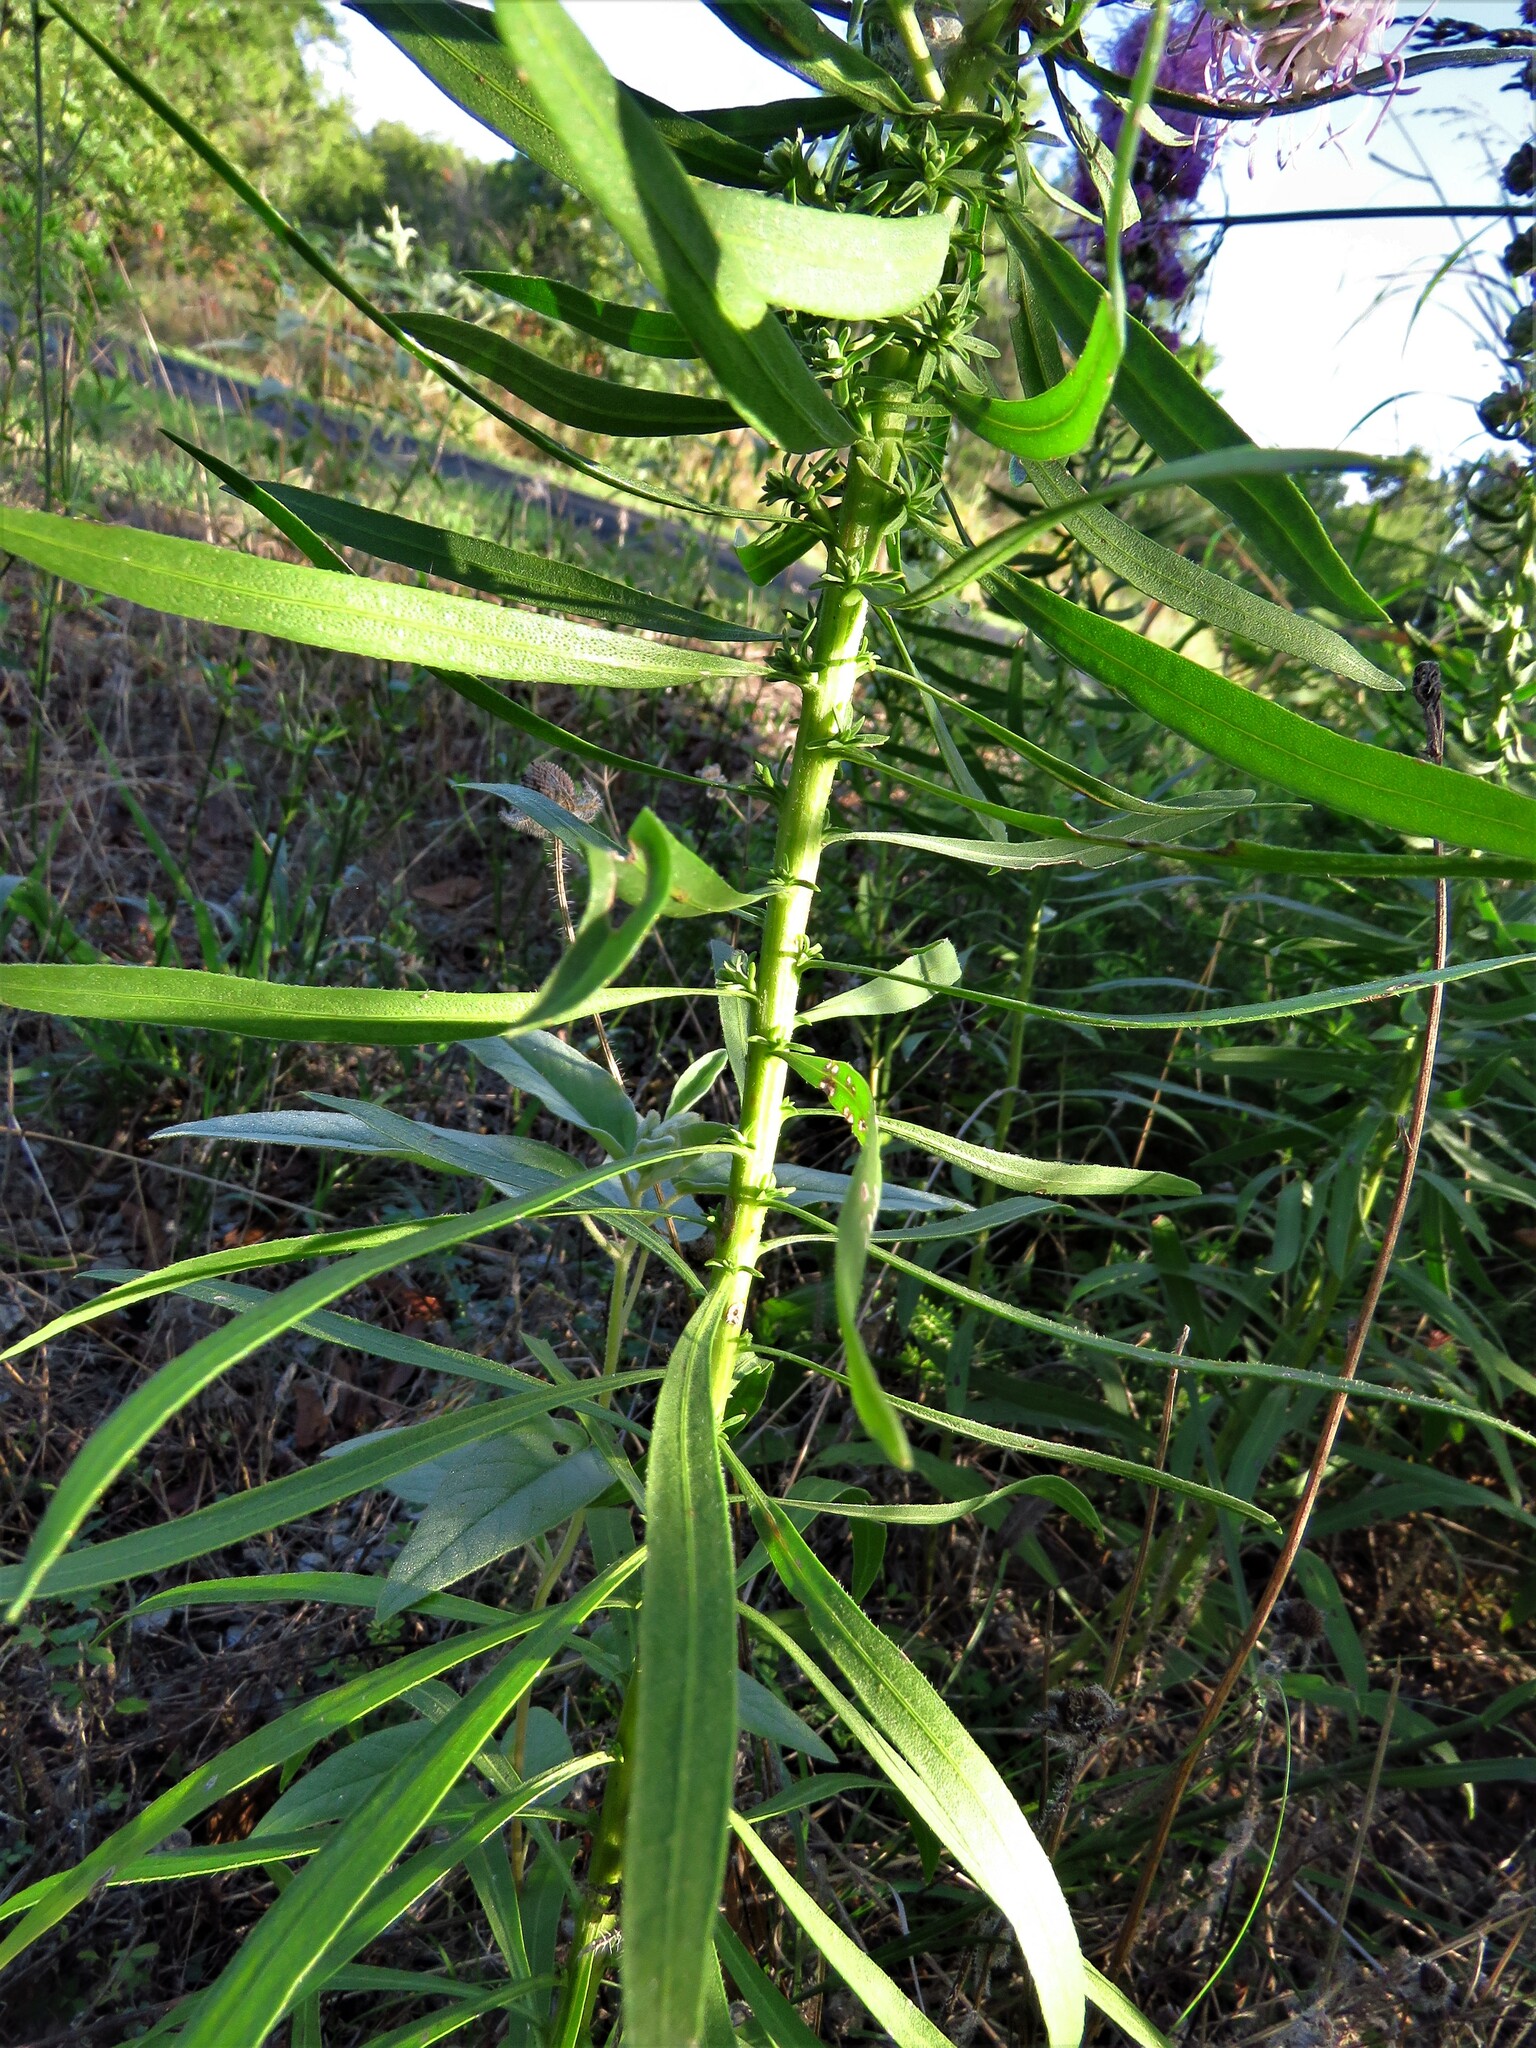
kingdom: Plantae
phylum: Tracheophyta
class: Magnoliopsida
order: Asterales
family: Asteraceae
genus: Liatris
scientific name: Liatris aspera
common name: Lacerate blazing-star
